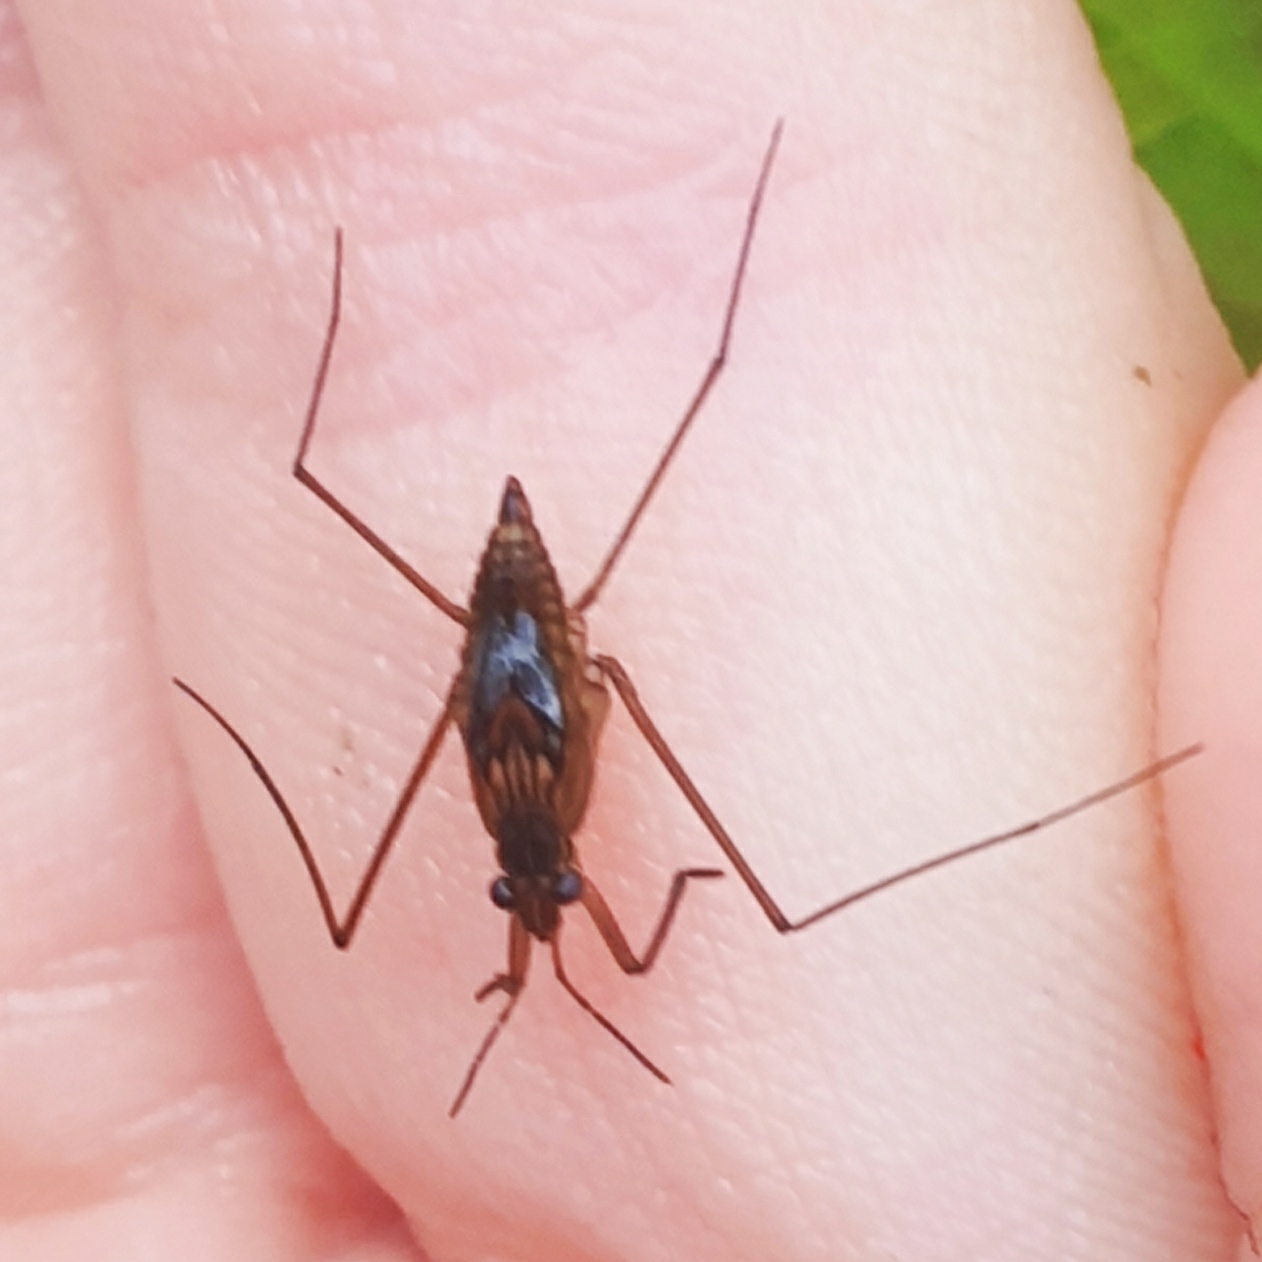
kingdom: Animalia
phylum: Arthropoda
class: Insecta
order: Hemiptera
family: Gerridae
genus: Gerris
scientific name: Gerris
